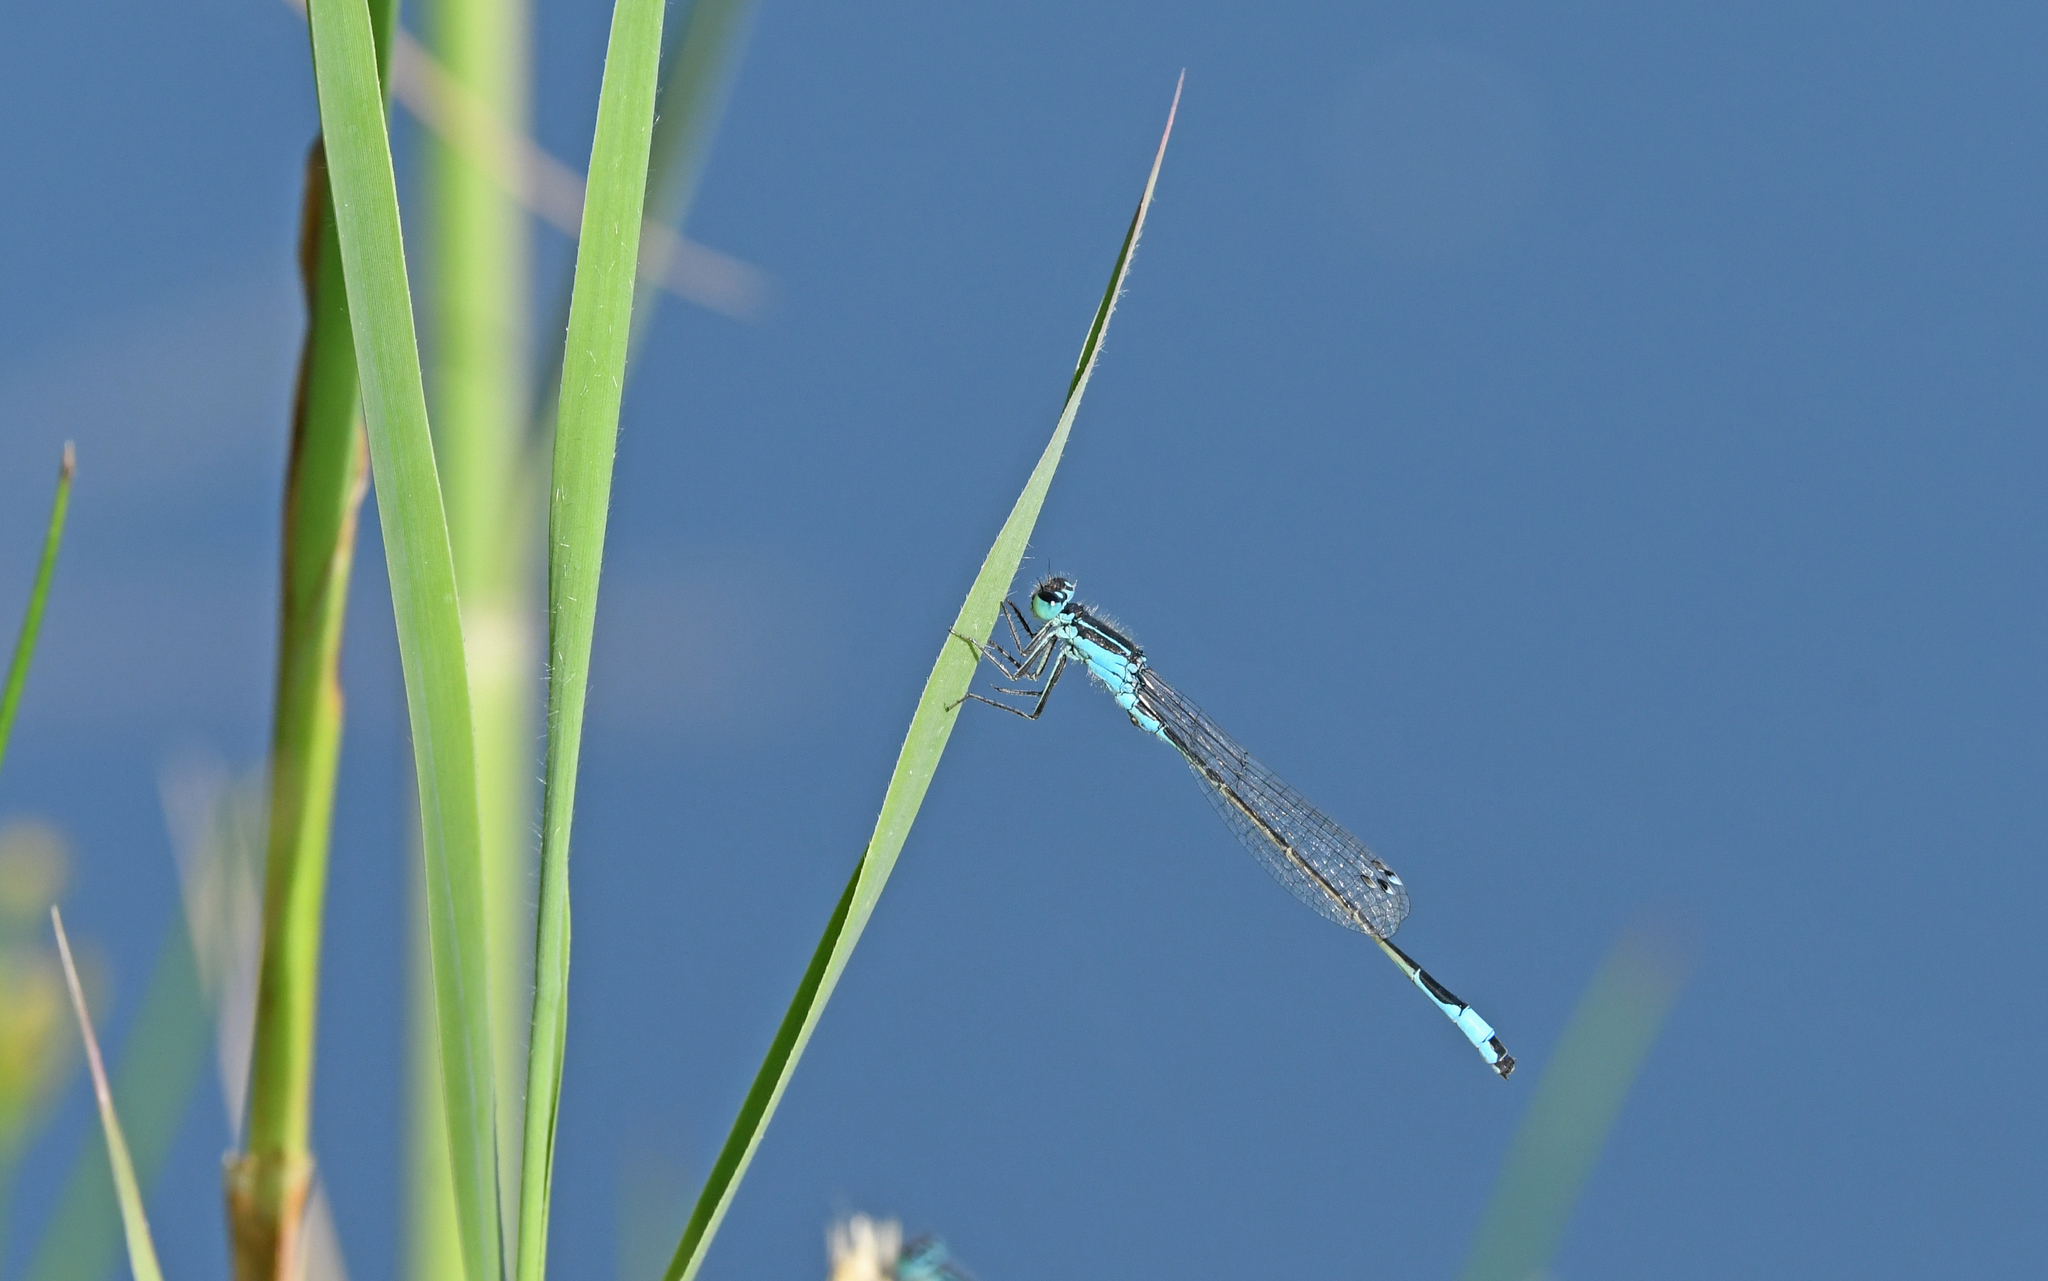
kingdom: Animalia
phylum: Arthropoda
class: Insecta
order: Odonata
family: Coenagrionidae
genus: Ischnura
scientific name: Ischnura elegans
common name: Blue-tailed damselfly
